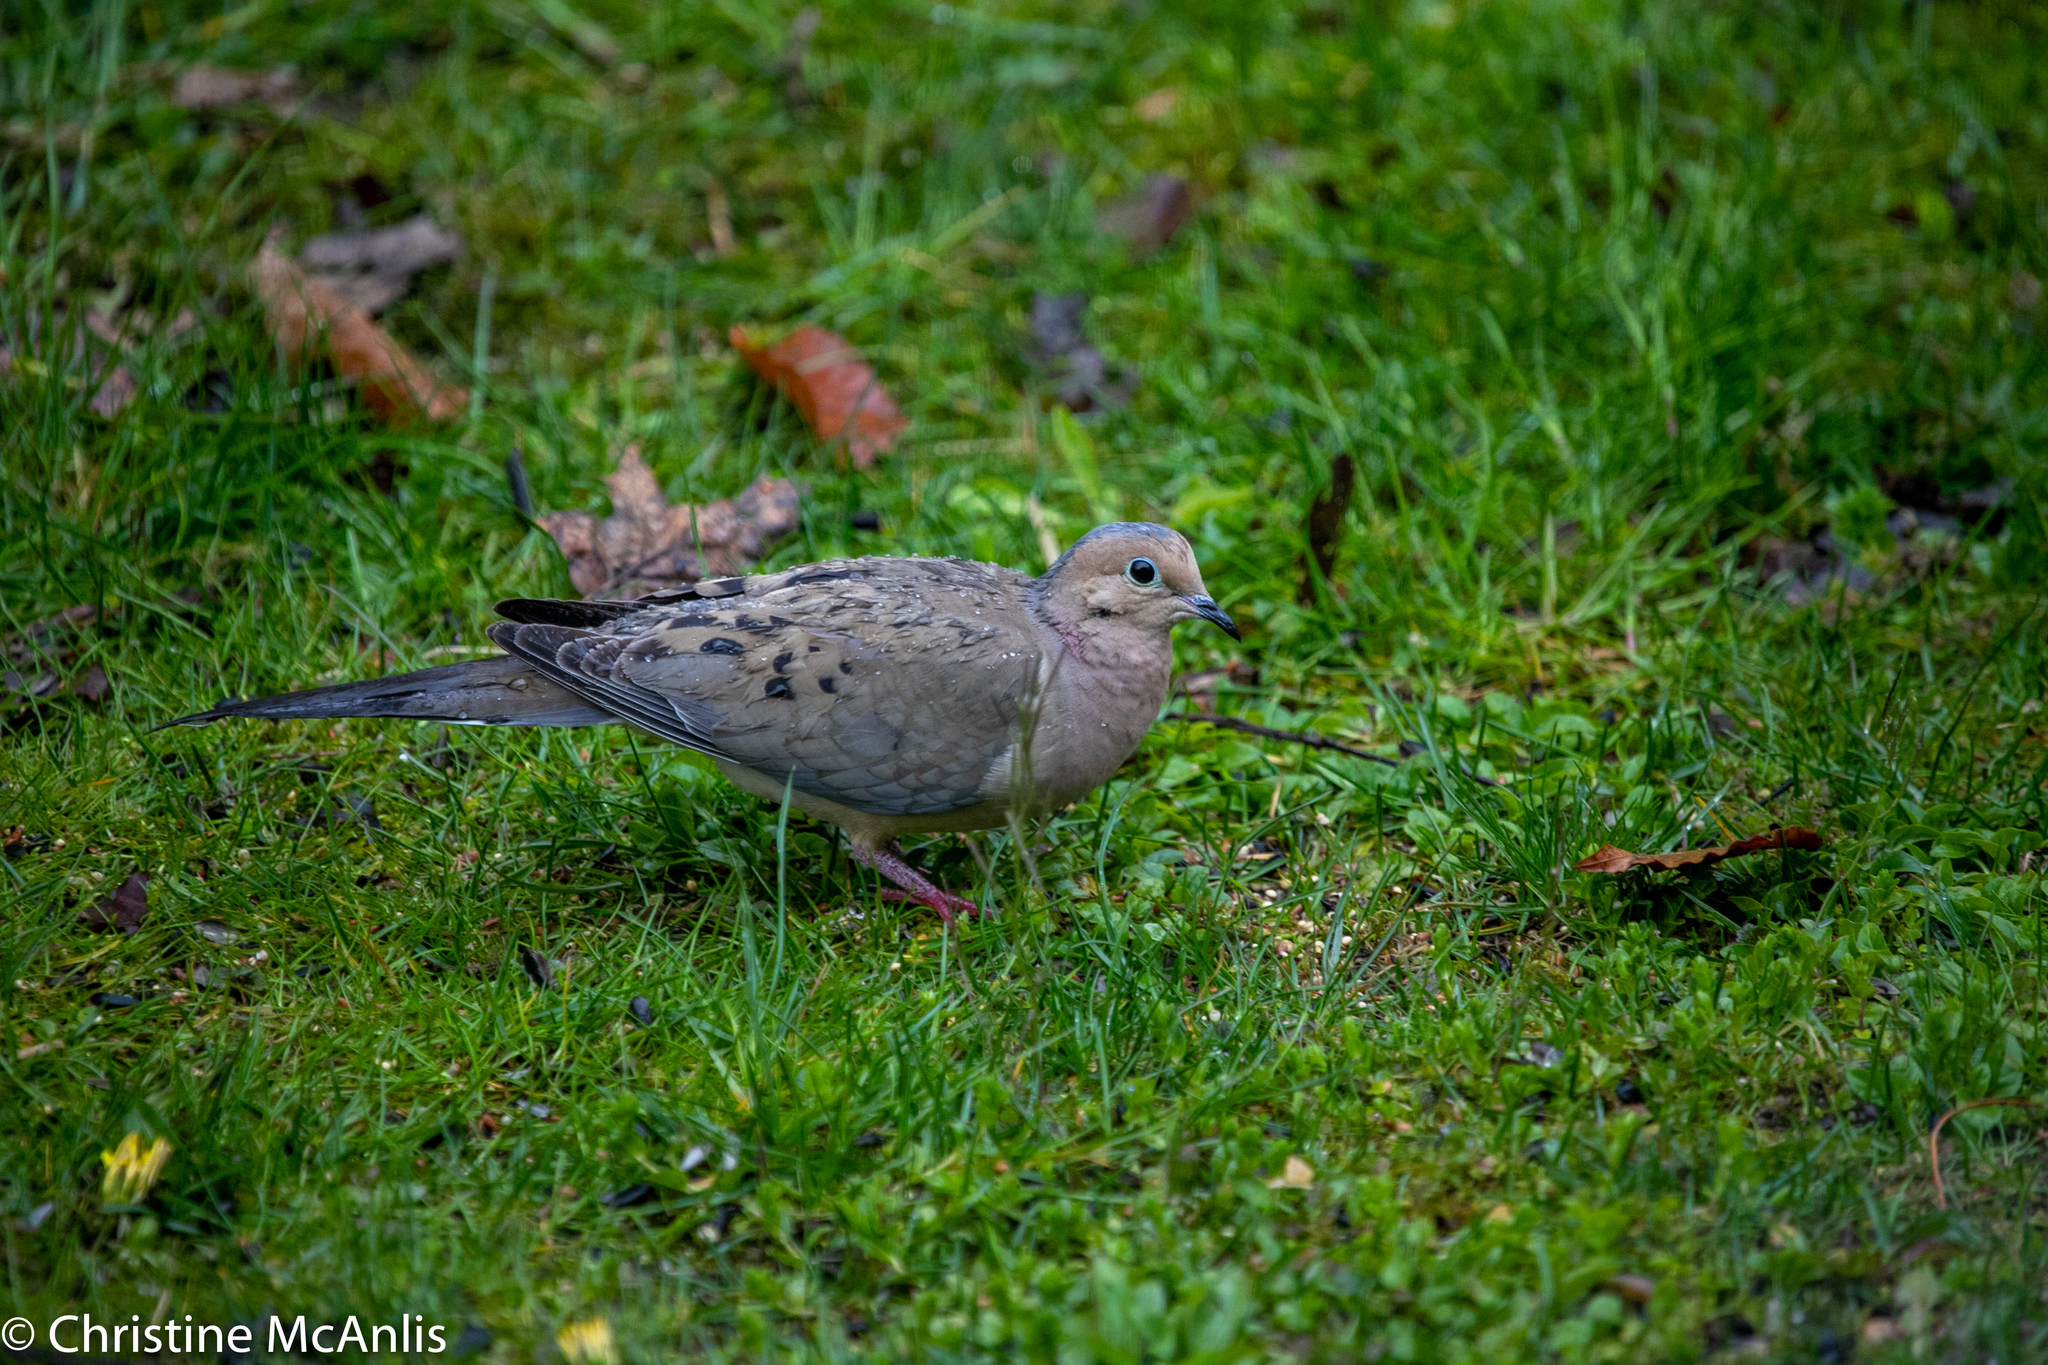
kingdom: Animalia
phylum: Chordata
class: Aves
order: Columbiformes
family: Columbidae
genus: Zenaida
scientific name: Zenaida macroura
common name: Mourning dove
